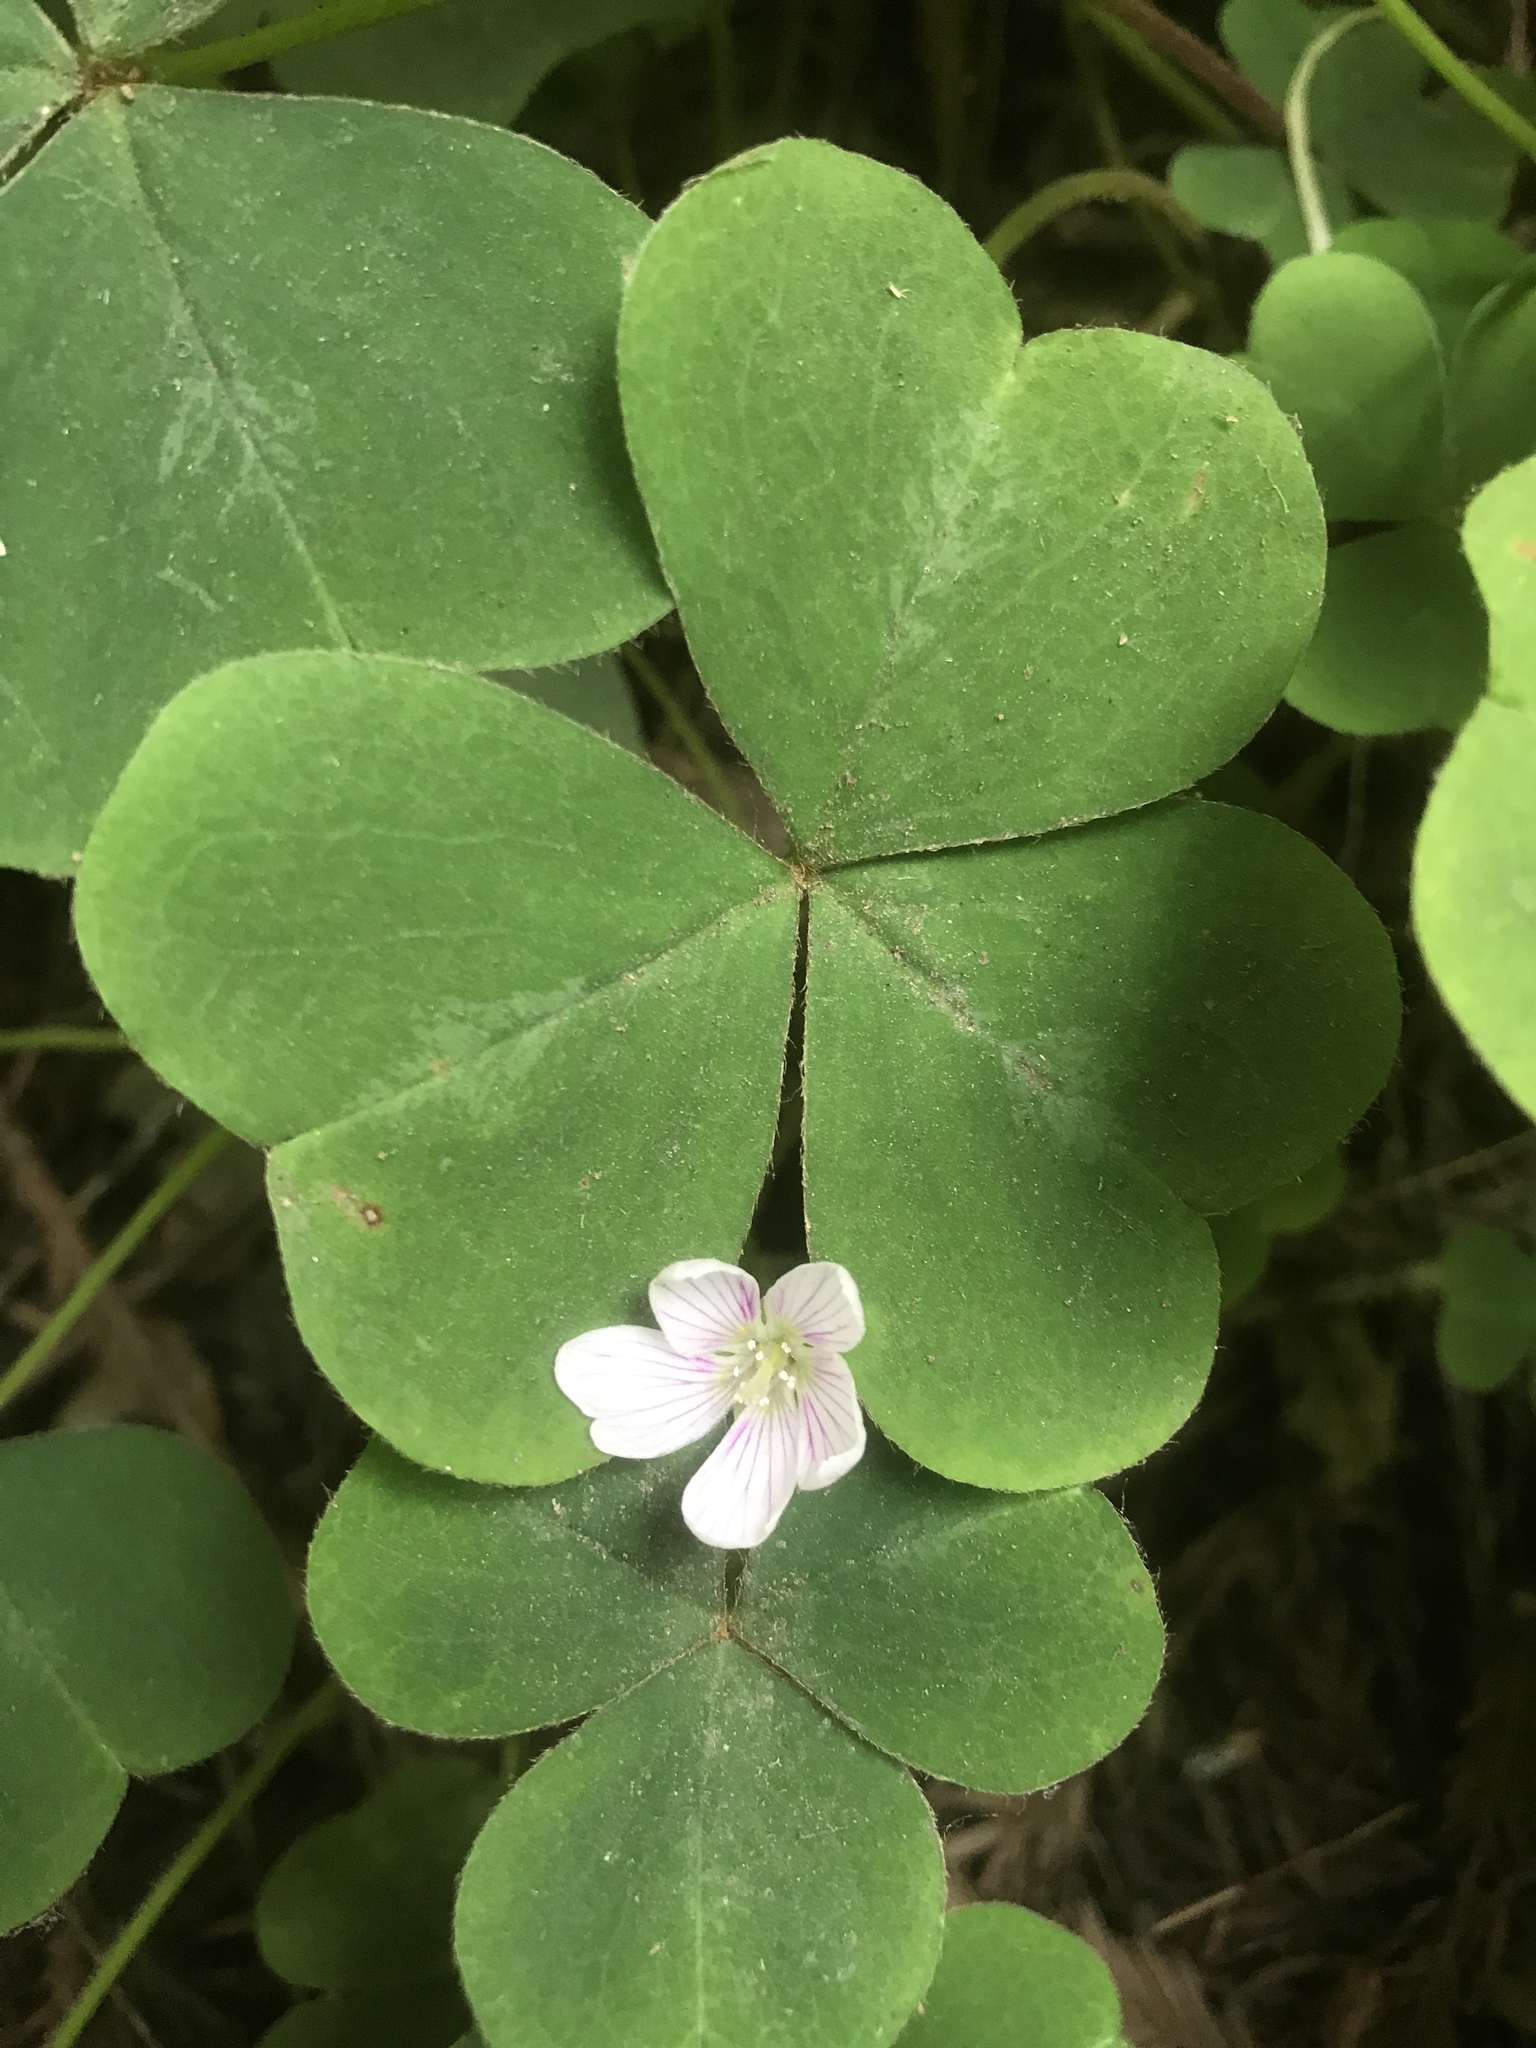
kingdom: Plantae
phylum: Tracheophyta
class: Magnoliopsida
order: Oxalidales
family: Oxalidaceae
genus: Oxalis
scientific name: Oxalis oregana
